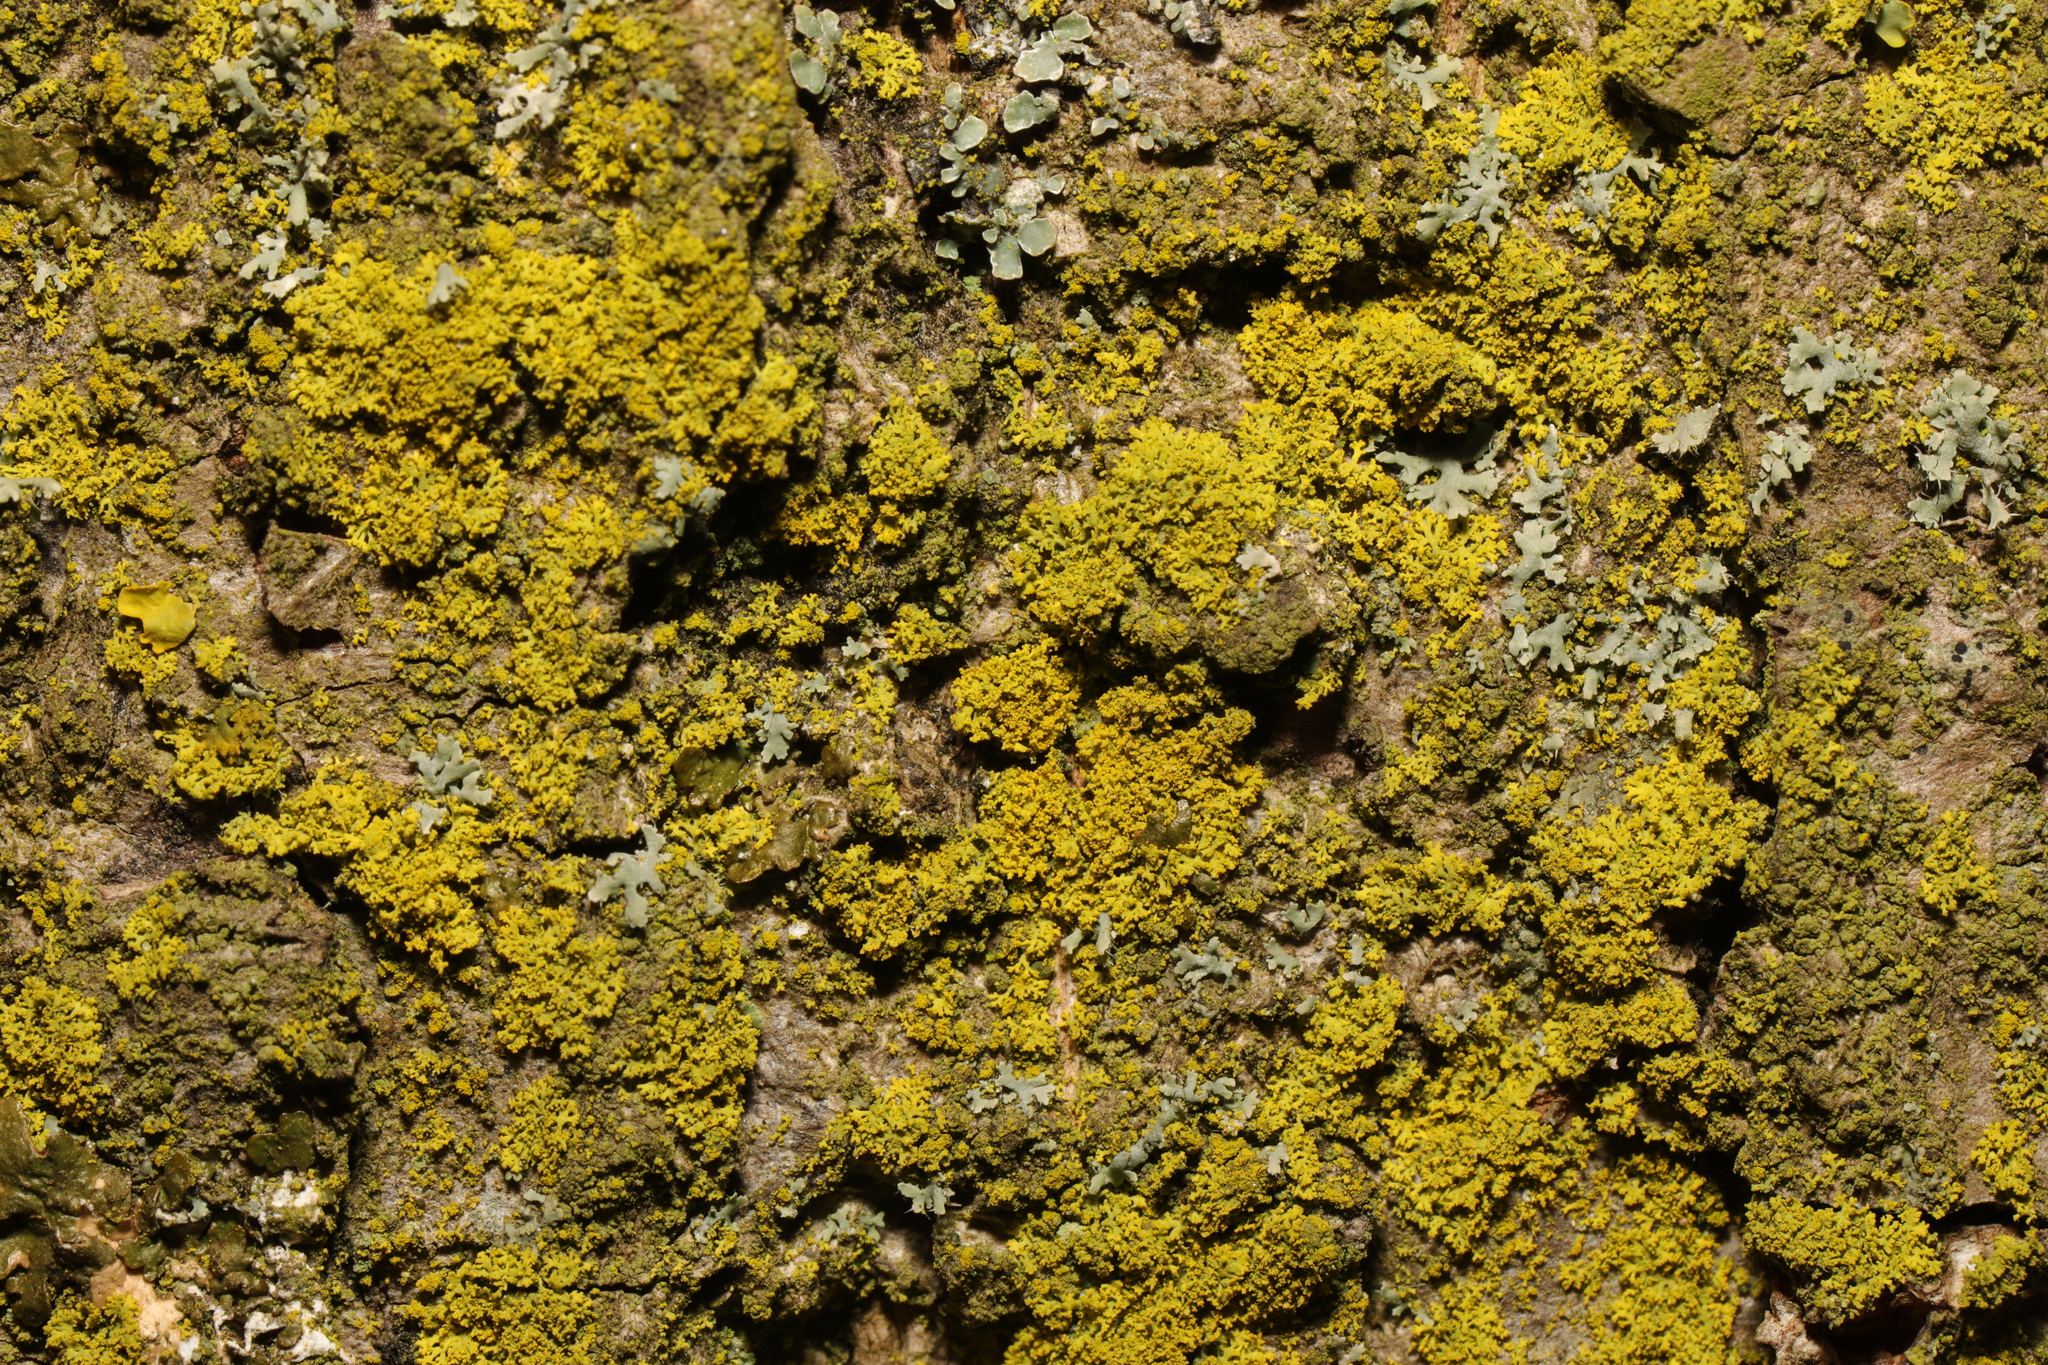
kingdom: Fungi
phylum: Ascomycota
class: Candelariomycetes
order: Candelariales
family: Candelariaceae
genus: Candelaria
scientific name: Candelaria concolor
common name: Candleflame lichen
